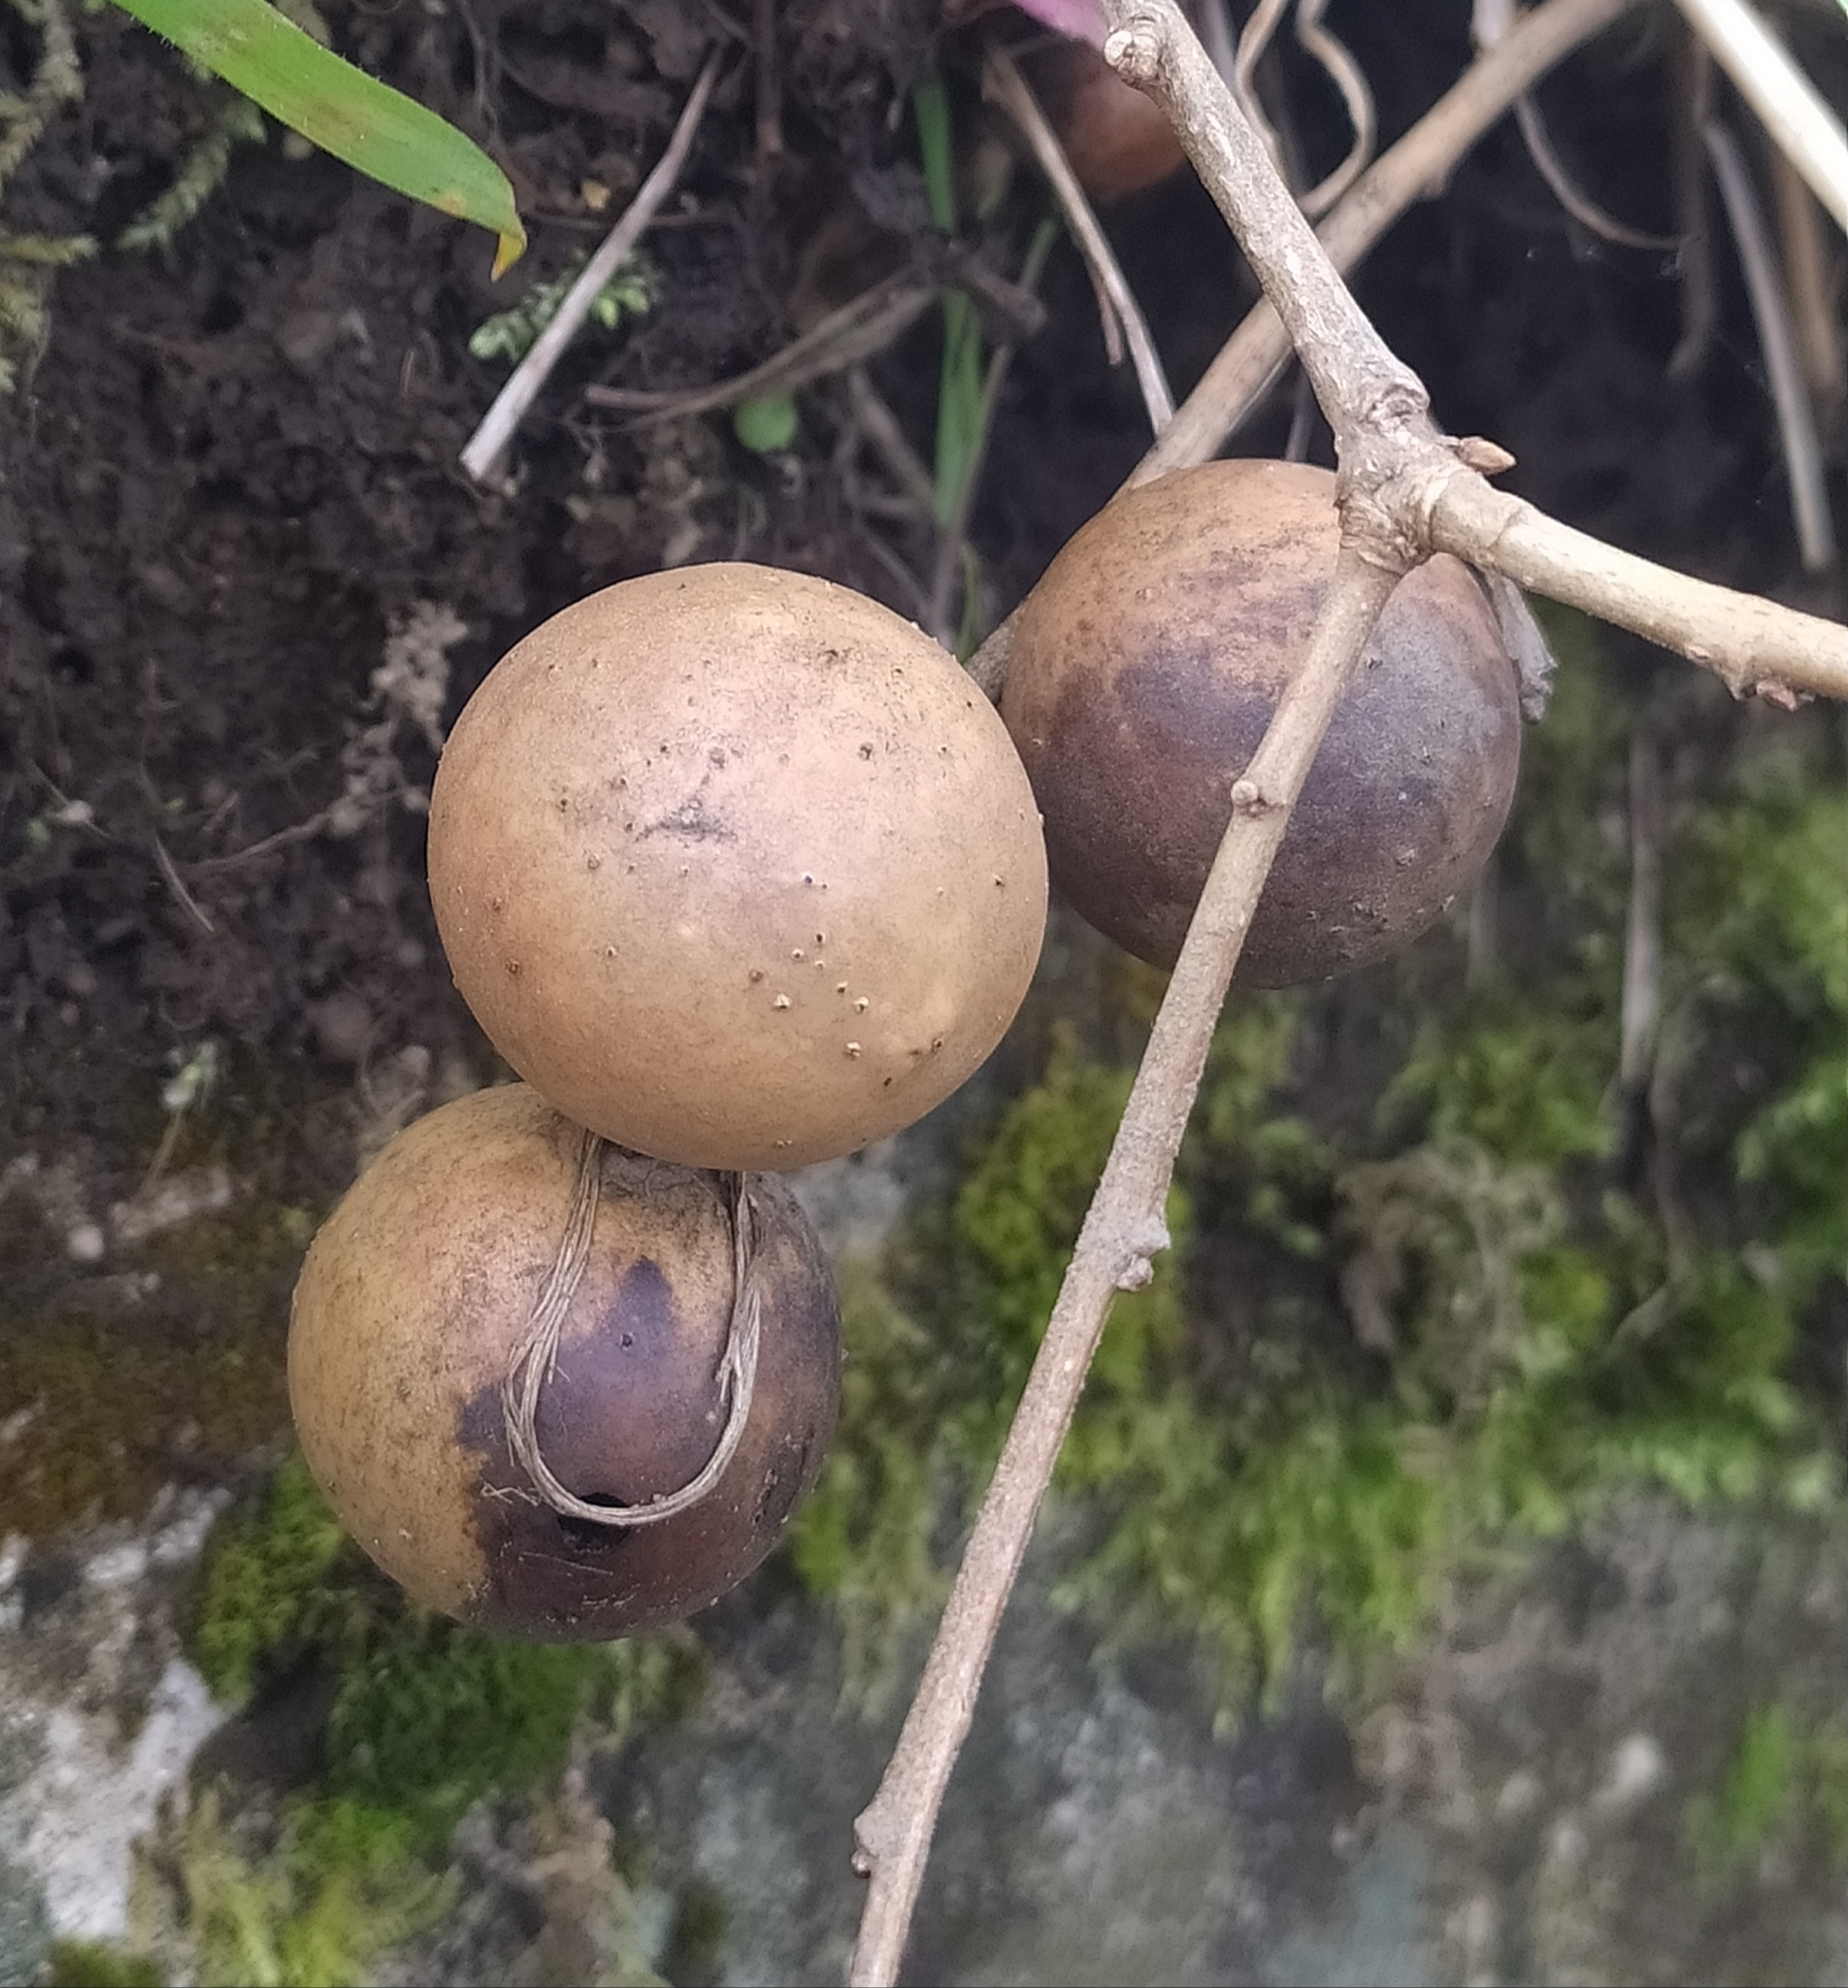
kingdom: Animalia
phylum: Arthropoda
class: Insecta
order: Hymenoptera
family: Cynipidae
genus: Andricus
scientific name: Andricus kollari
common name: Marble gall
